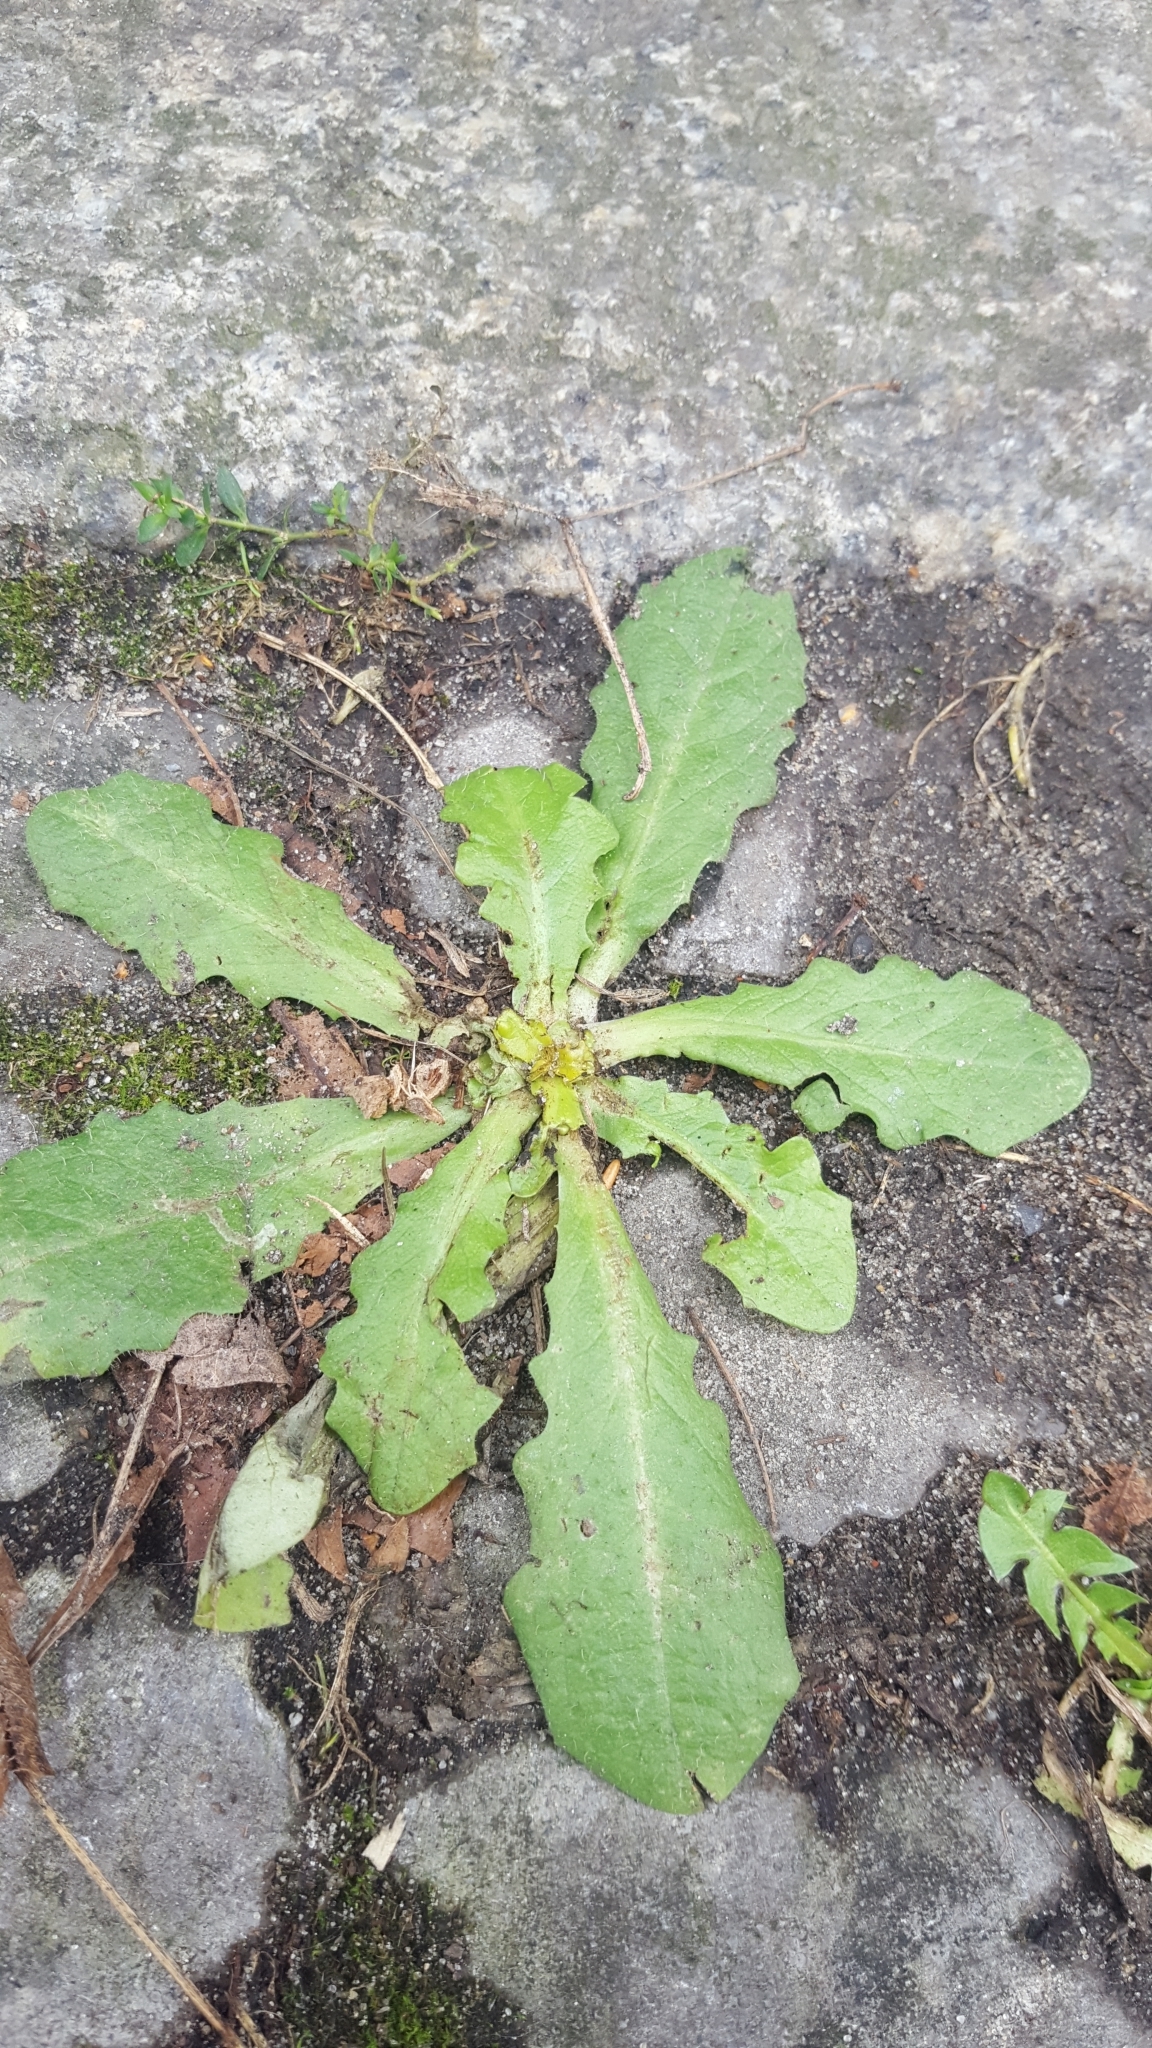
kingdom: Plantae
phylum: Tracheophyta
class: Magnoliopsida
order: Asterales
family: Asteraceae
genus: Hypochaeris
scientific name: Hypochaeris radicata
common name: Flatweed
